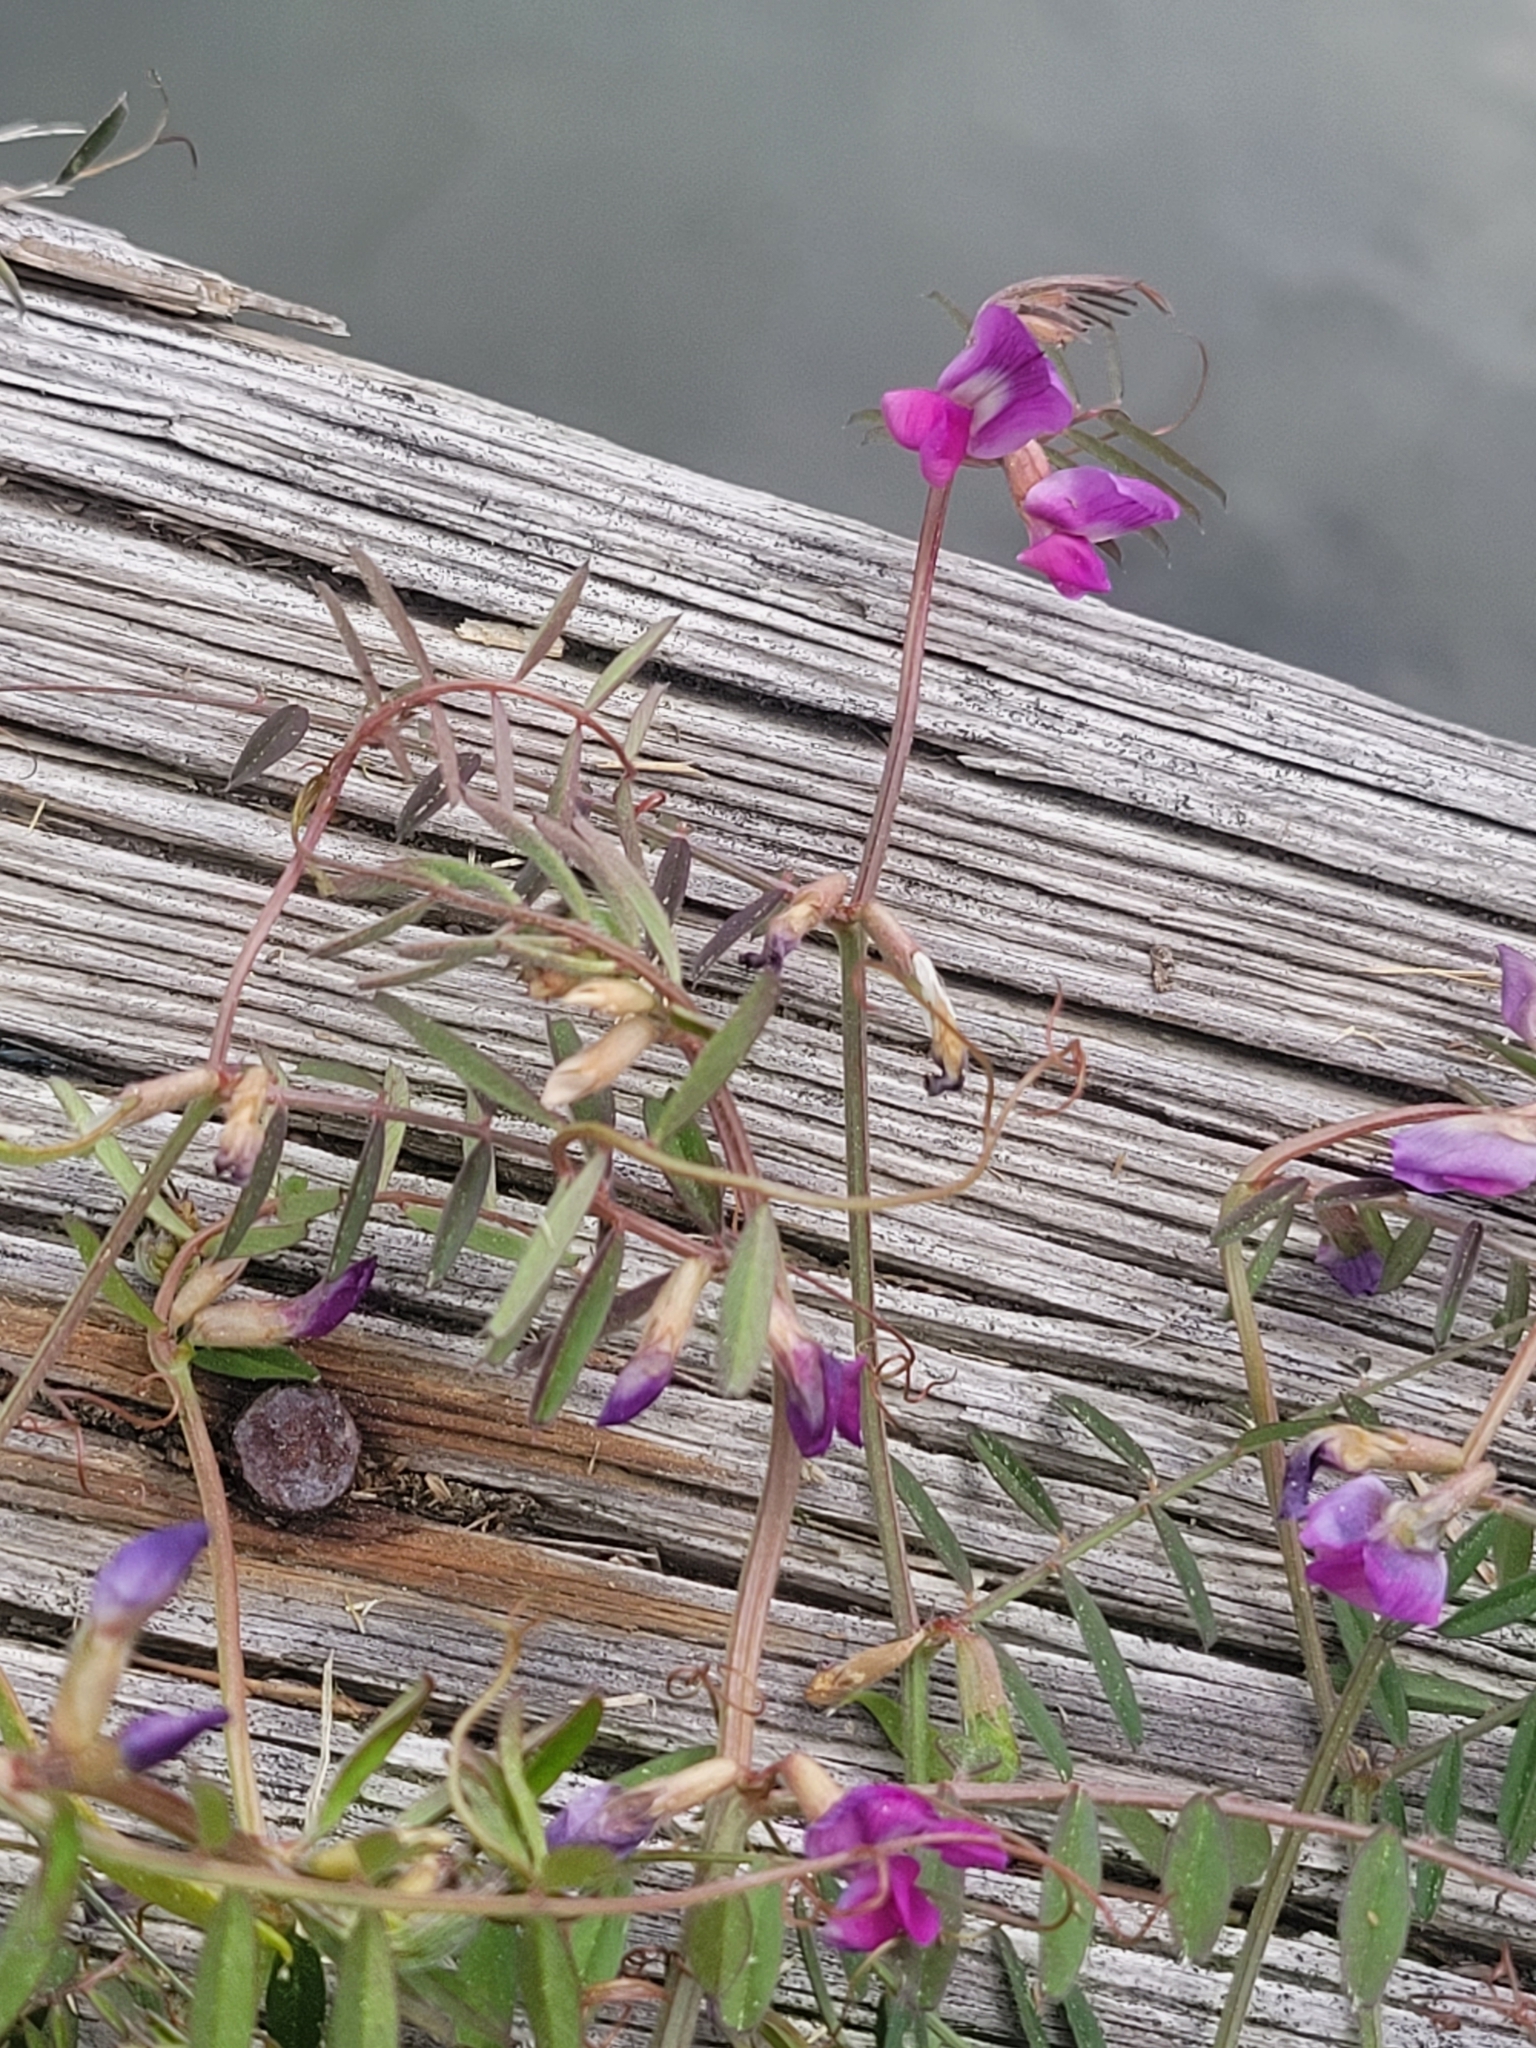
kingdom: Plantae
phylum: Tracheophyta
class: Magnoliopsida
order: Fabales
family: Fabaceae
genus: Vicia
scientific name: Vicia sativa
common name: Garden vetch
